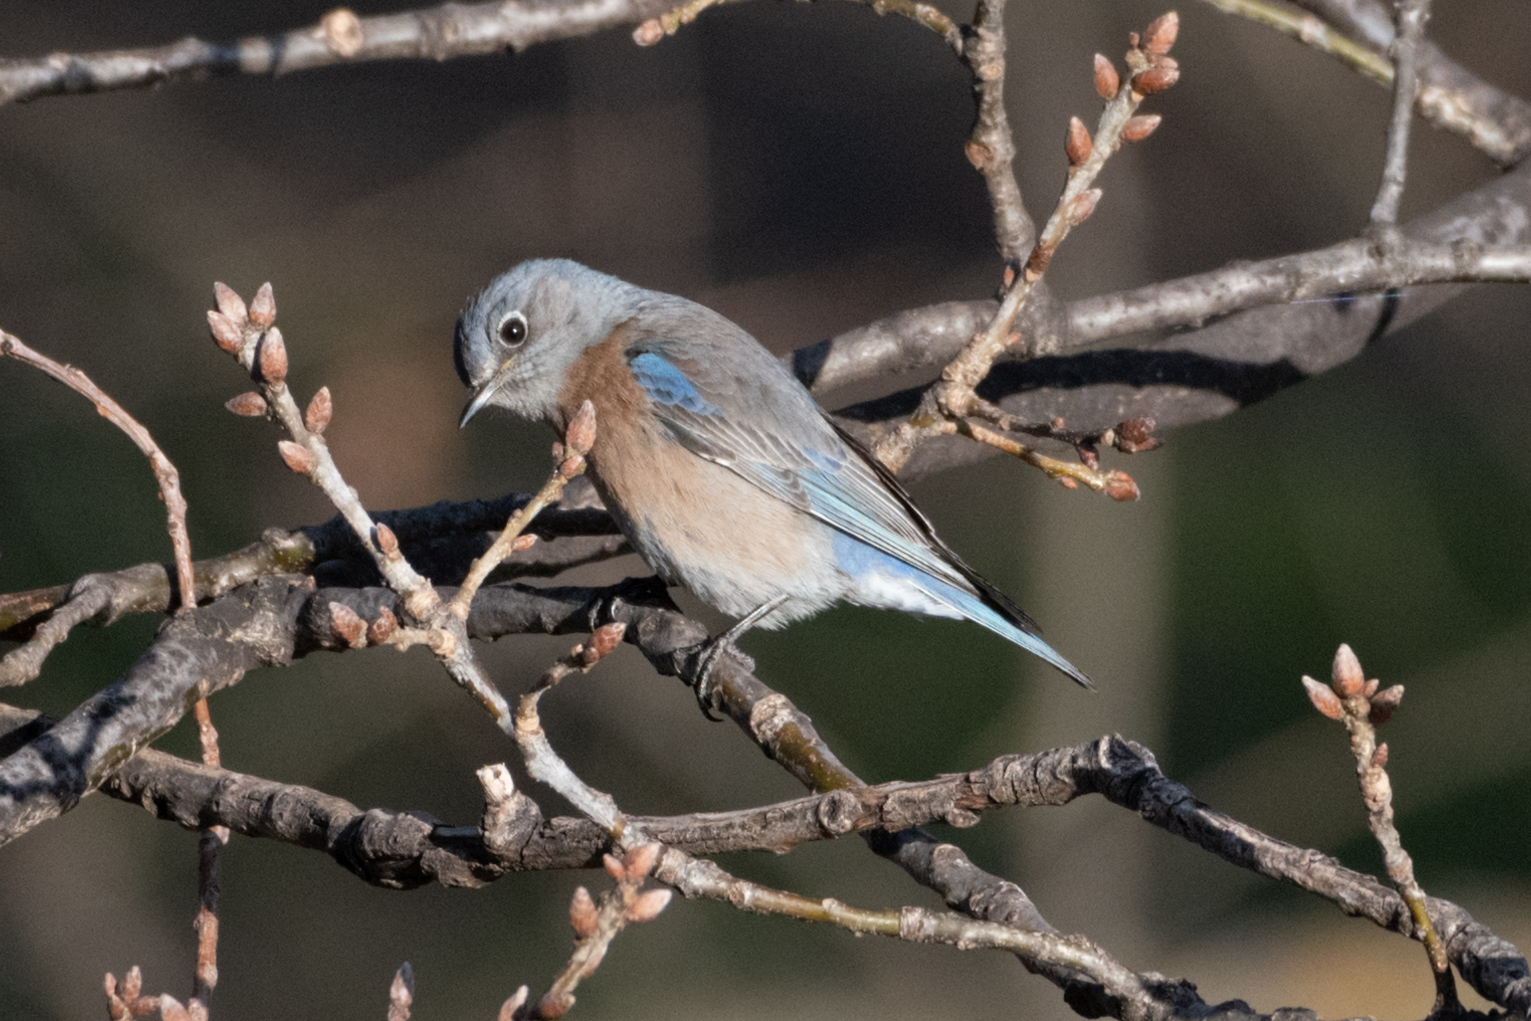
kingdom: Animalia
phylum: Chordata
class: Aves
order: Passeriformes
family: Turdidae
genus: Sialia
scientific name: Sialia mexicana
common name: Western bluebird
